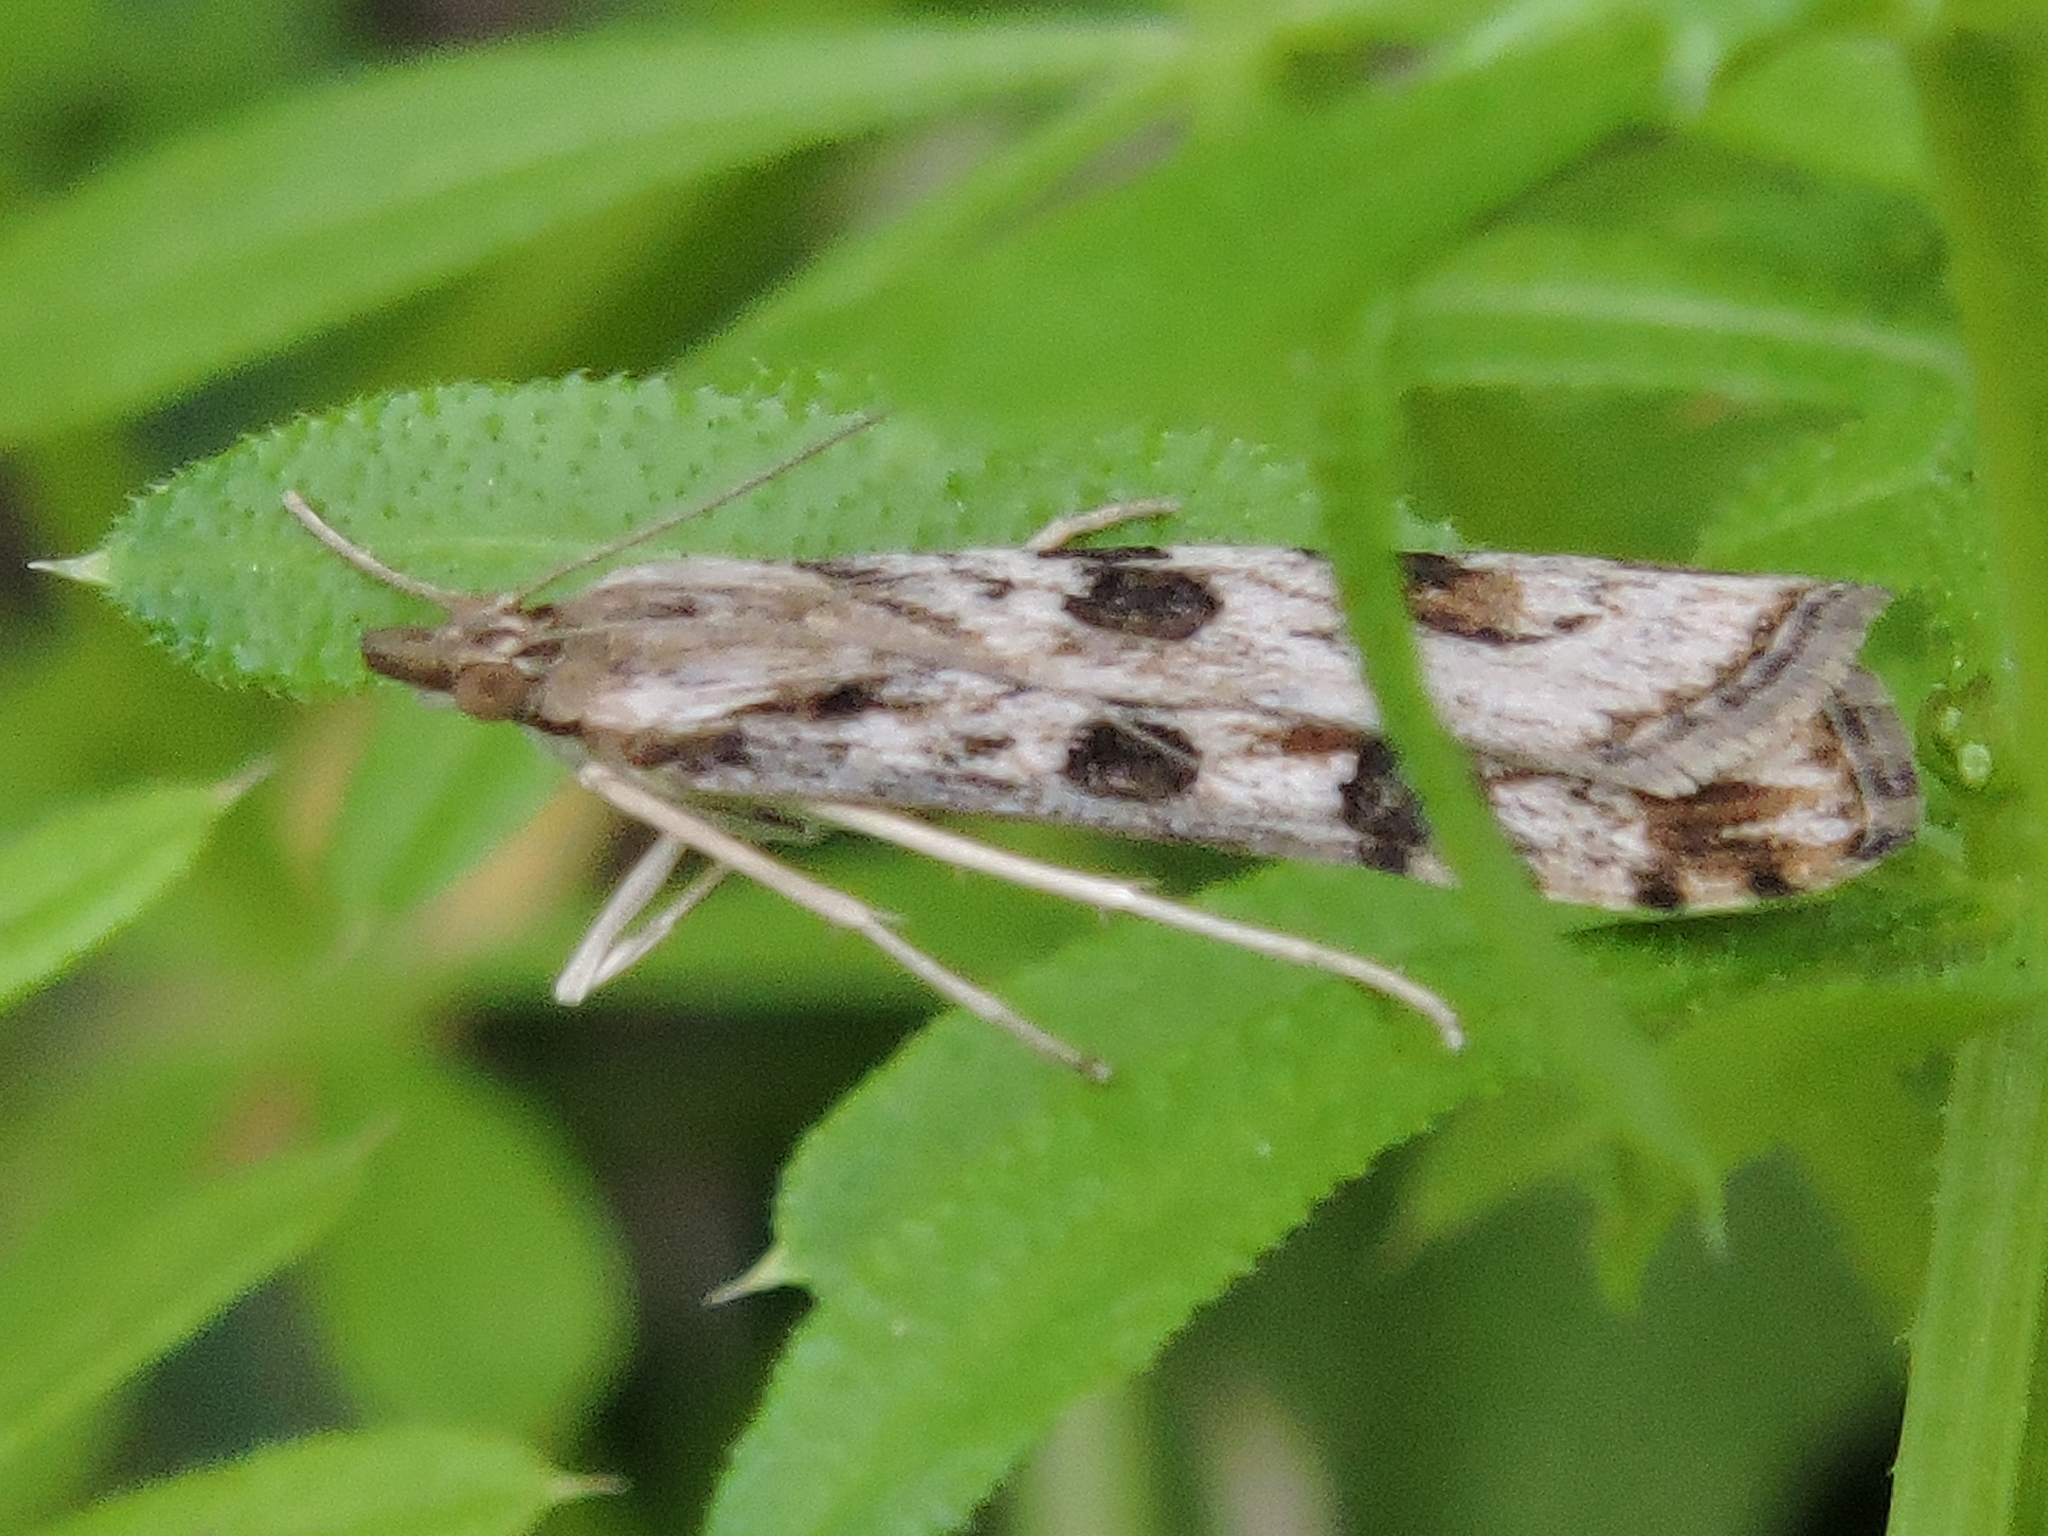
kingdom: Animalia
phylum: Arthropoda
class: Insecta
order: Lepidoptera
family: Crambidae
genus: Nomophila
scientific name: Nomophila nearctica
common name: American rush veneer
